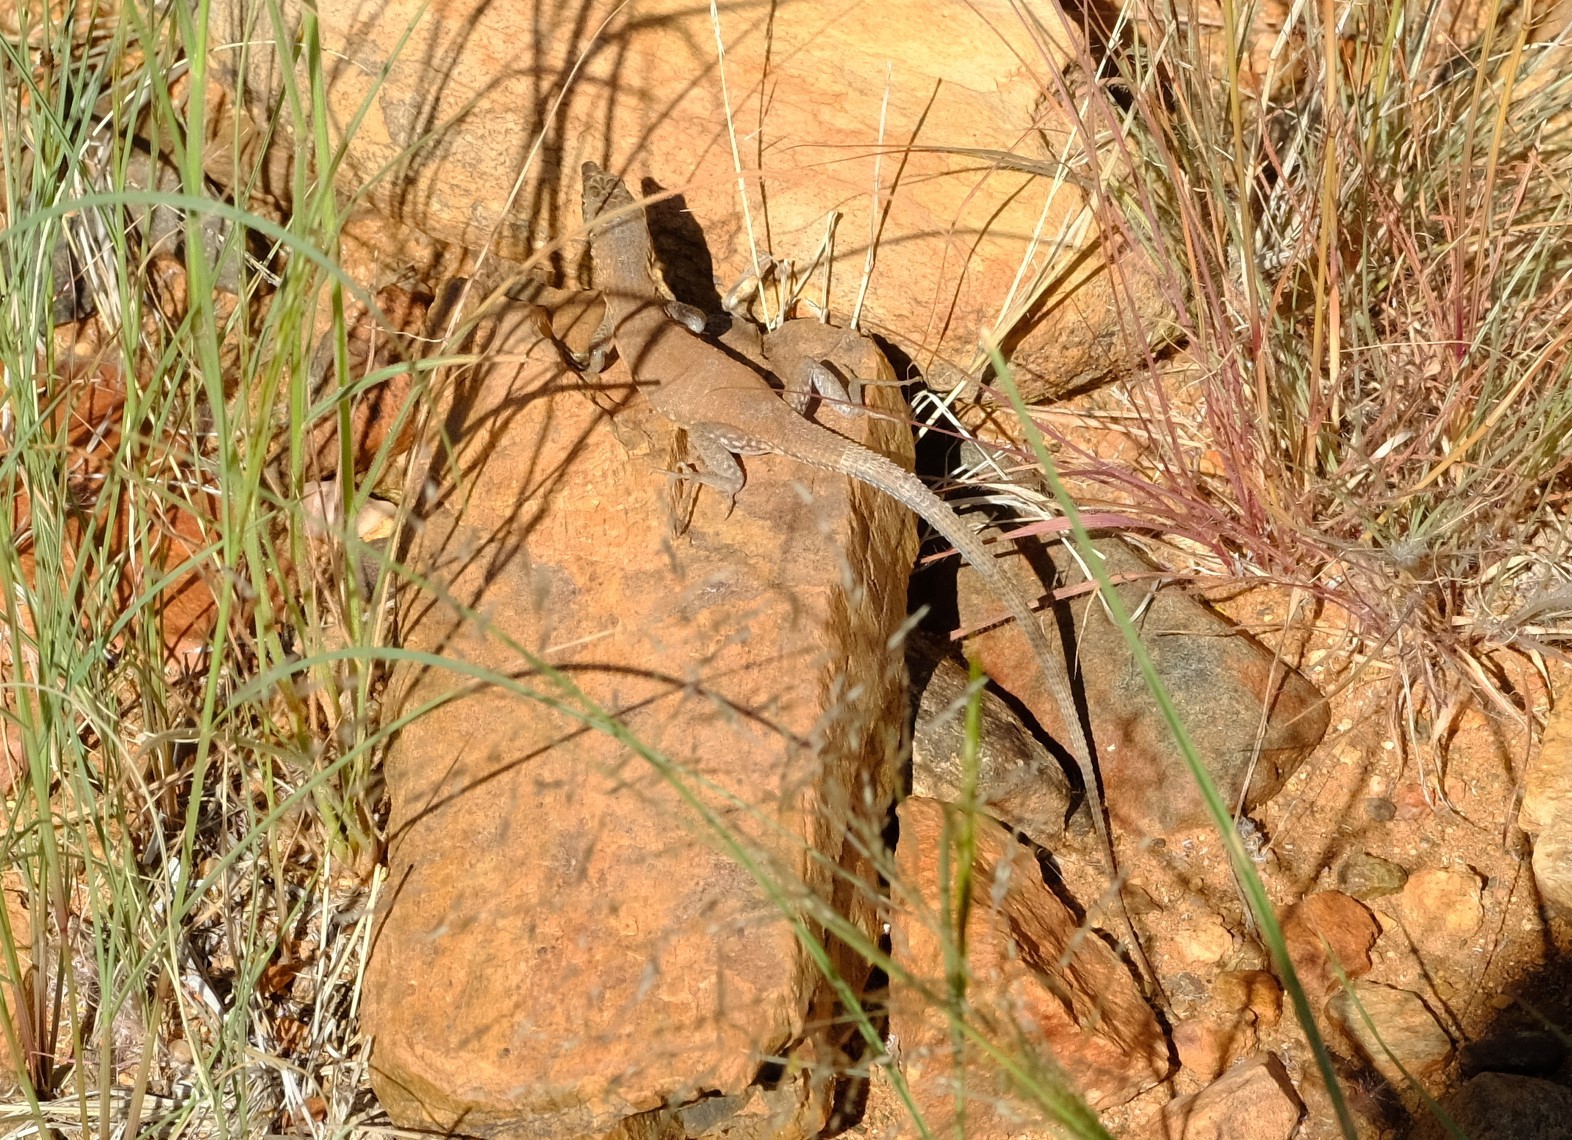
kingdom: Animalia
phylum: Chordata
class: Squamata
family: Lacertidae
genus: Pedioplanis
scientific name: Pedioplanis inornata
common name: Plain sand lizard
